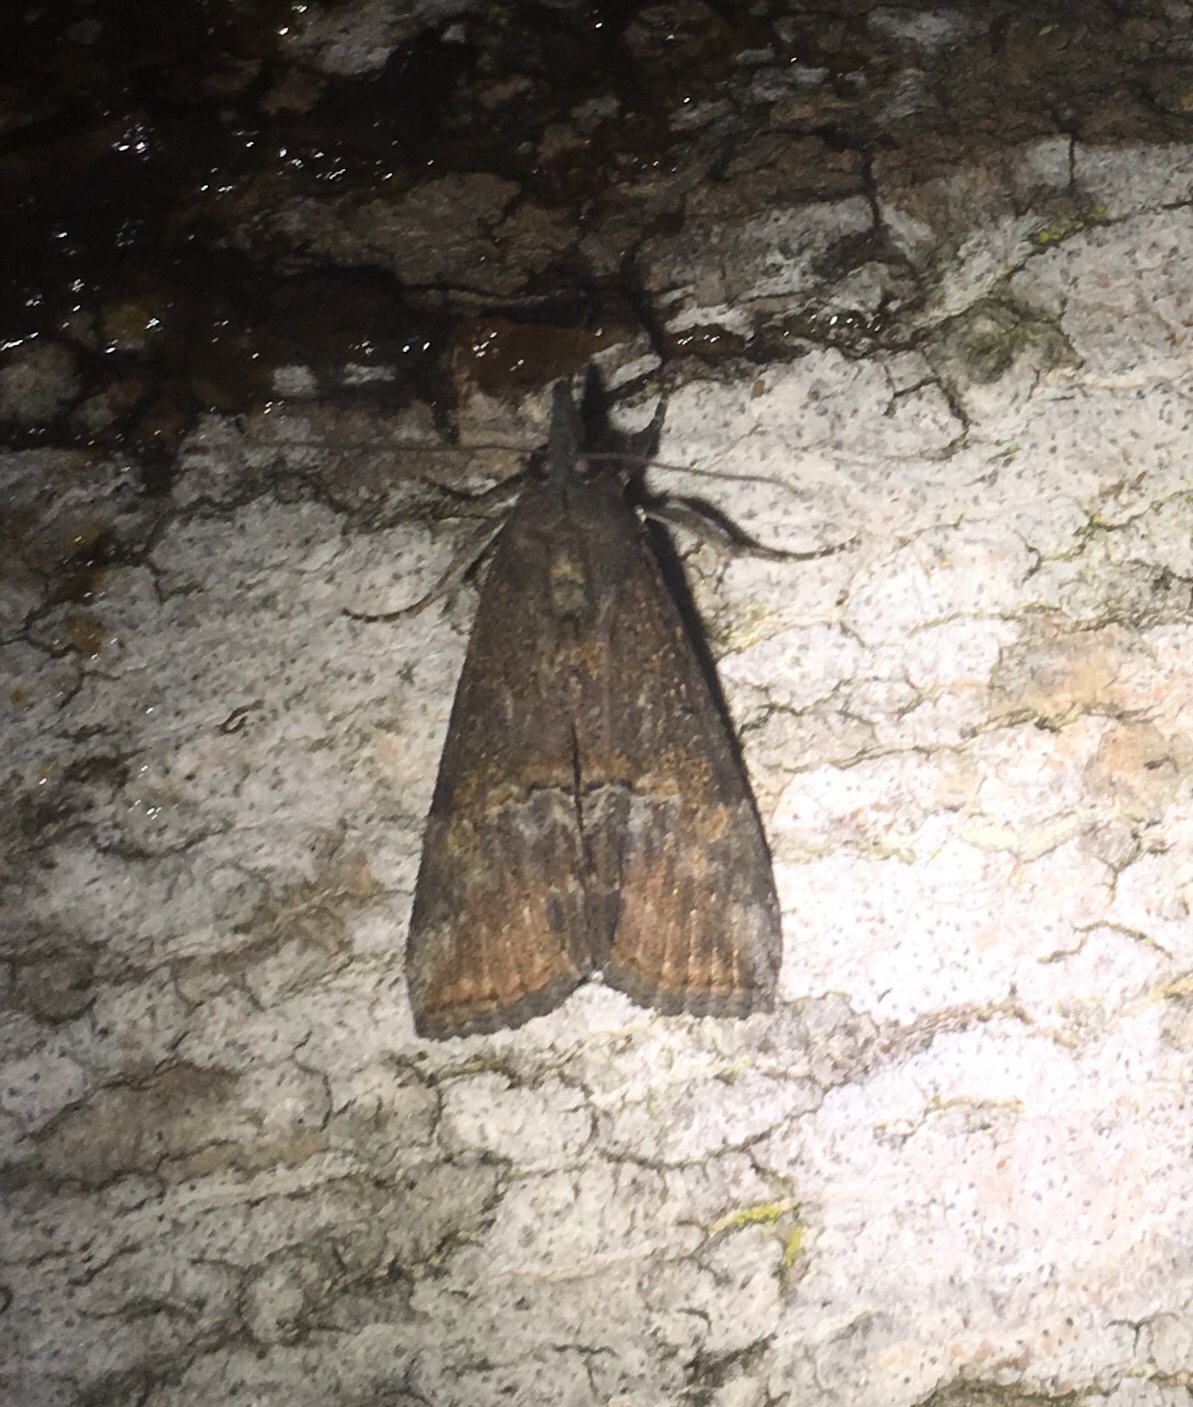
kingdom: Animalia
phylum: Arthropoda
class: Insecta
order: Lepidoptera
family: Erebidae
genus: Hypena
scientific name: Hypena scabra
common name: Green cloverworm
